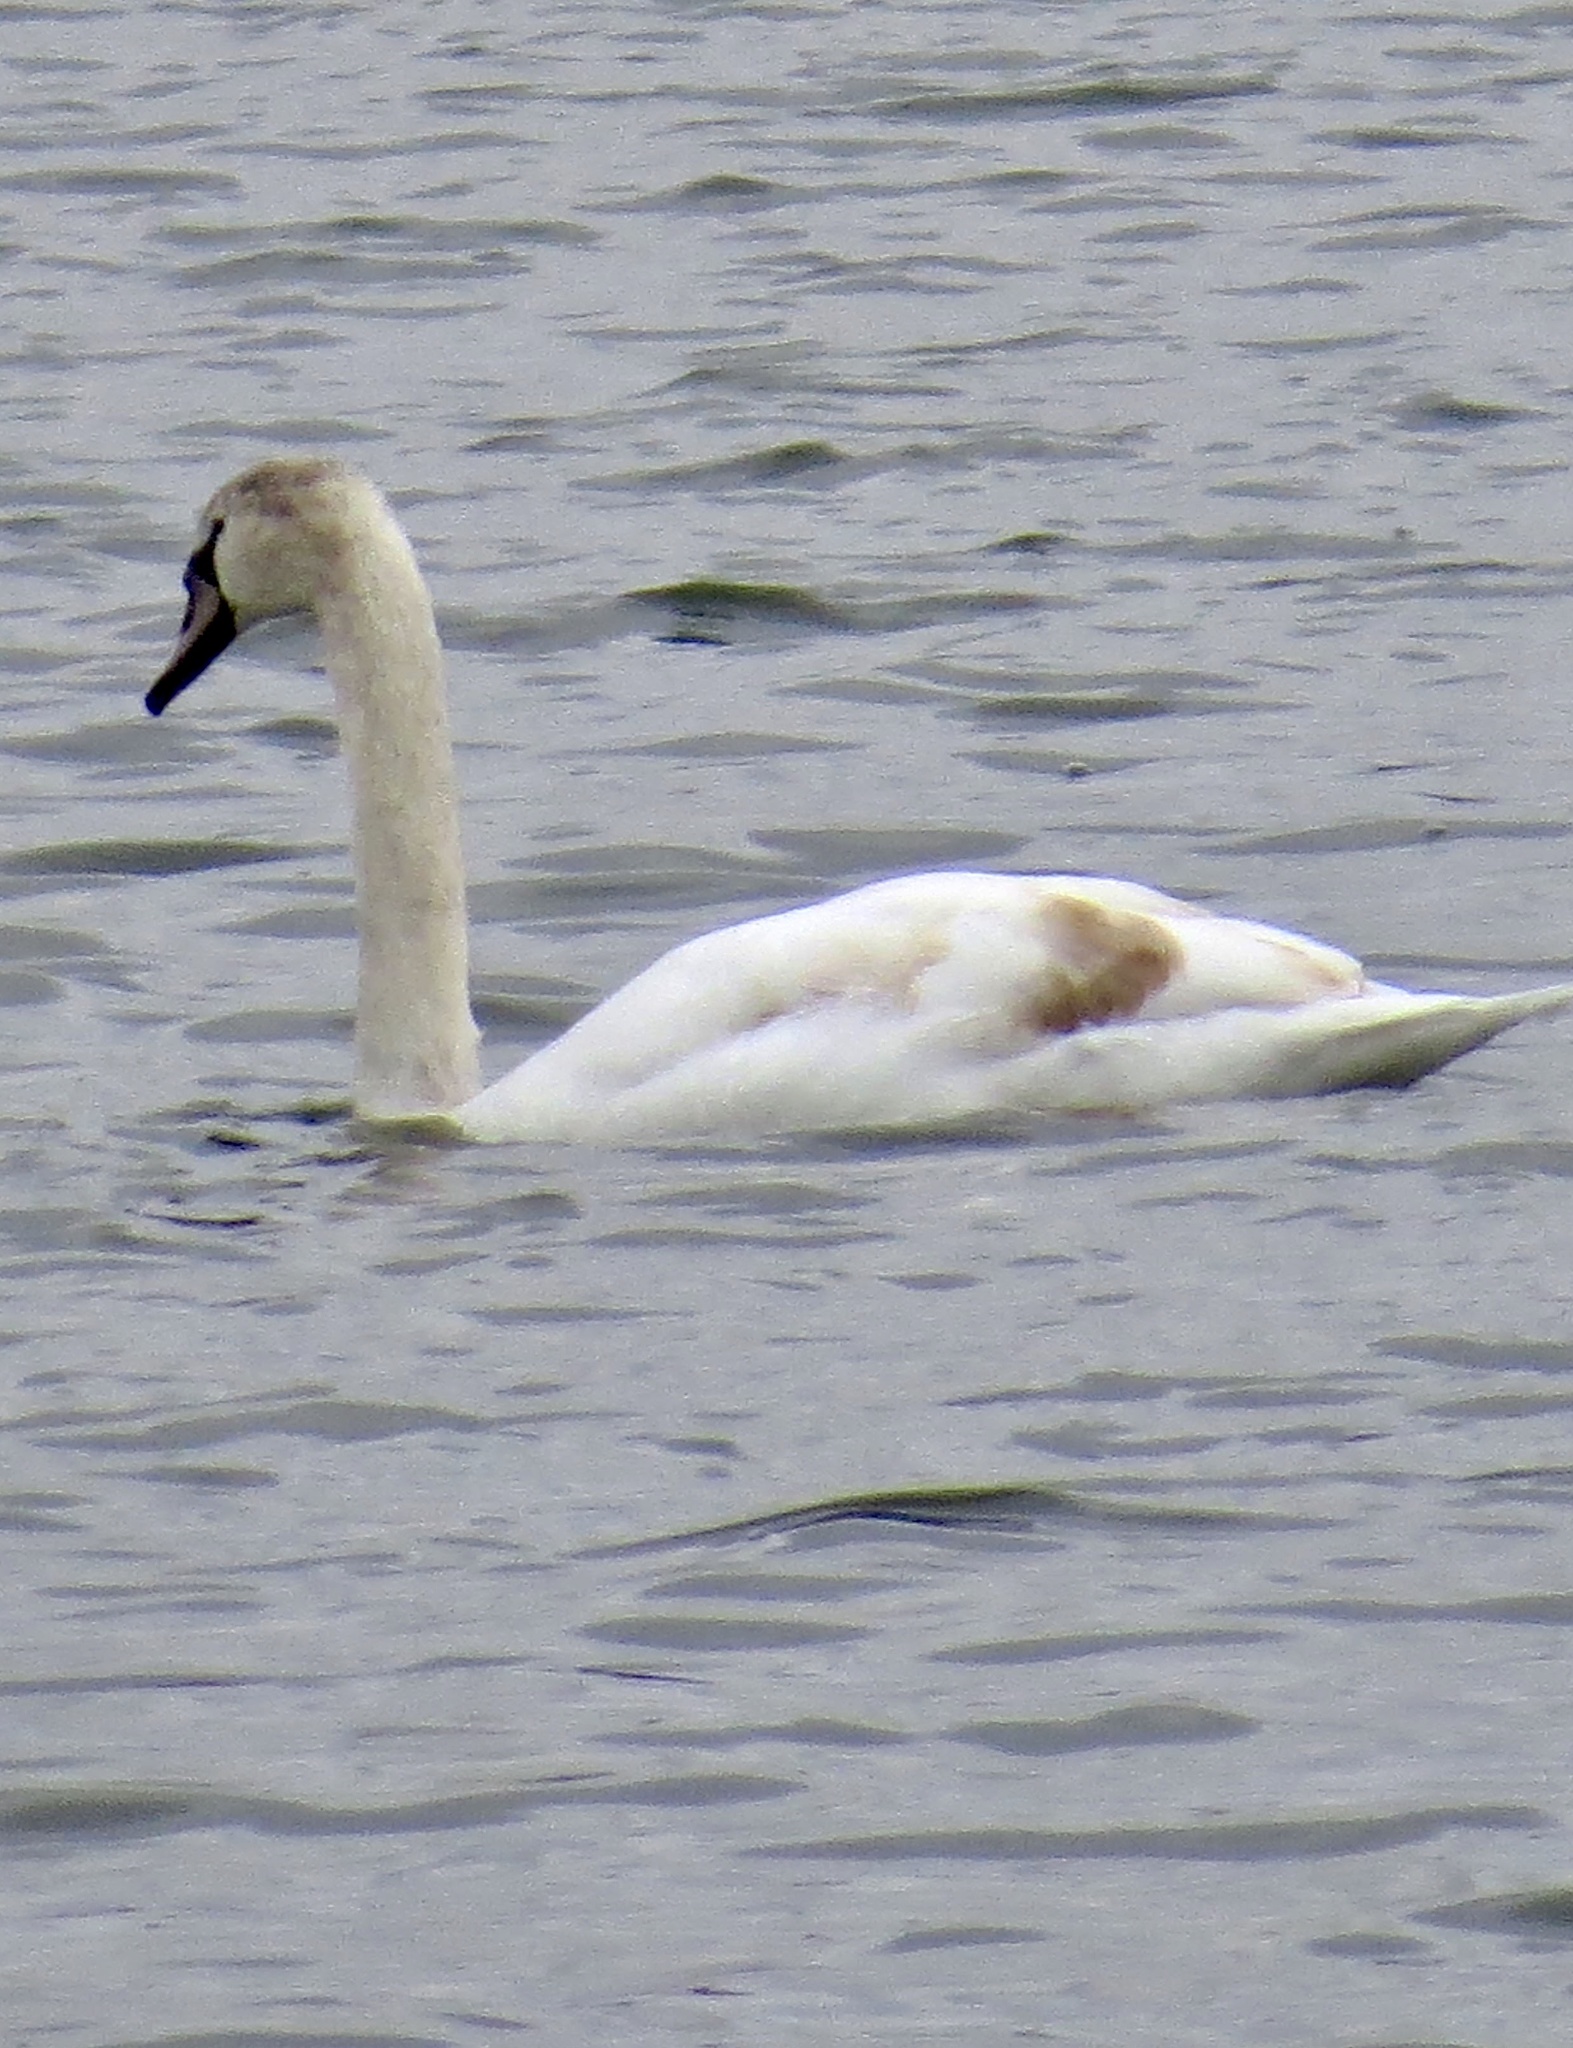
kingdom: Animalia
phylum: Chordata
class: Aves
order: Anseriformes
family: Anatidae
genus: Cygnus
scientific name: Cygnus olor
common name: Mute swan
